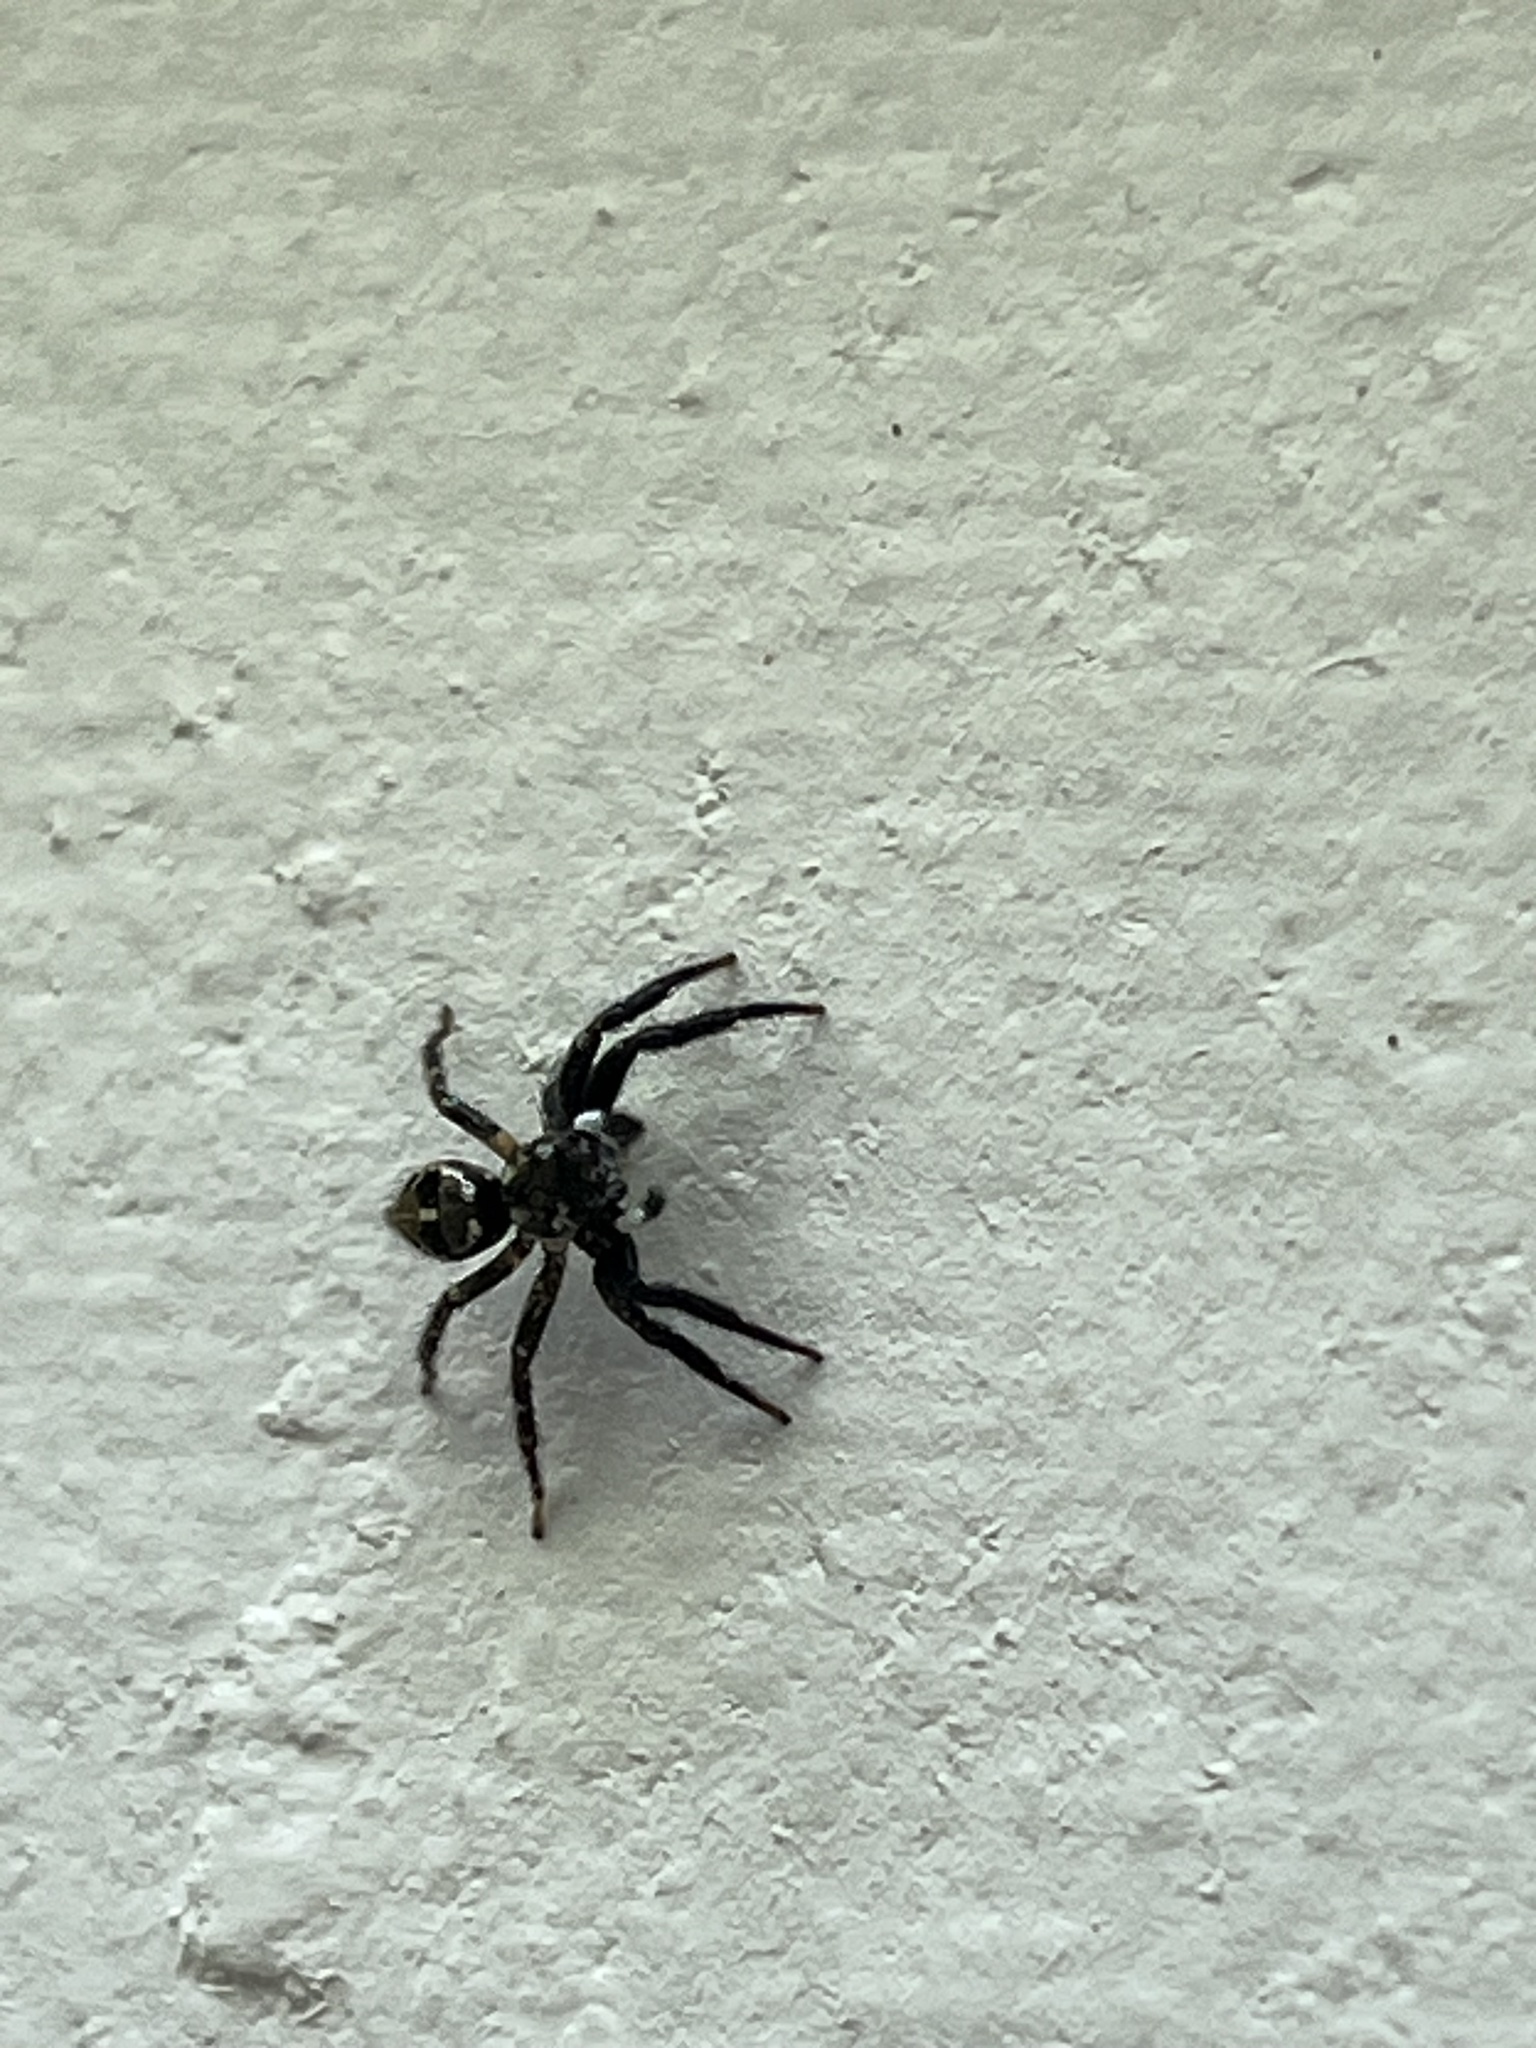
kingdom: Animalia
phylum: Arthropoda
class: Arachnida
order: Araneae
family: Salticidae
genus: Anasaitis
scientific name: Anasaitis canosa
